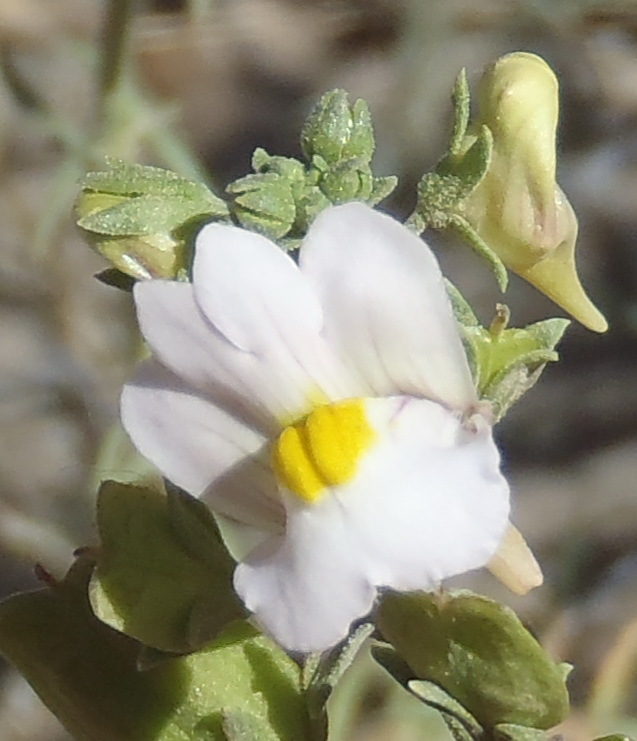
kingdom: Plantae
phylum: Tracheophyta
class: Magnoliopsida
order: Lamiales
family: Scrophulariaceae
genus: Nemesia
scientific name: Nemesia fruticans
